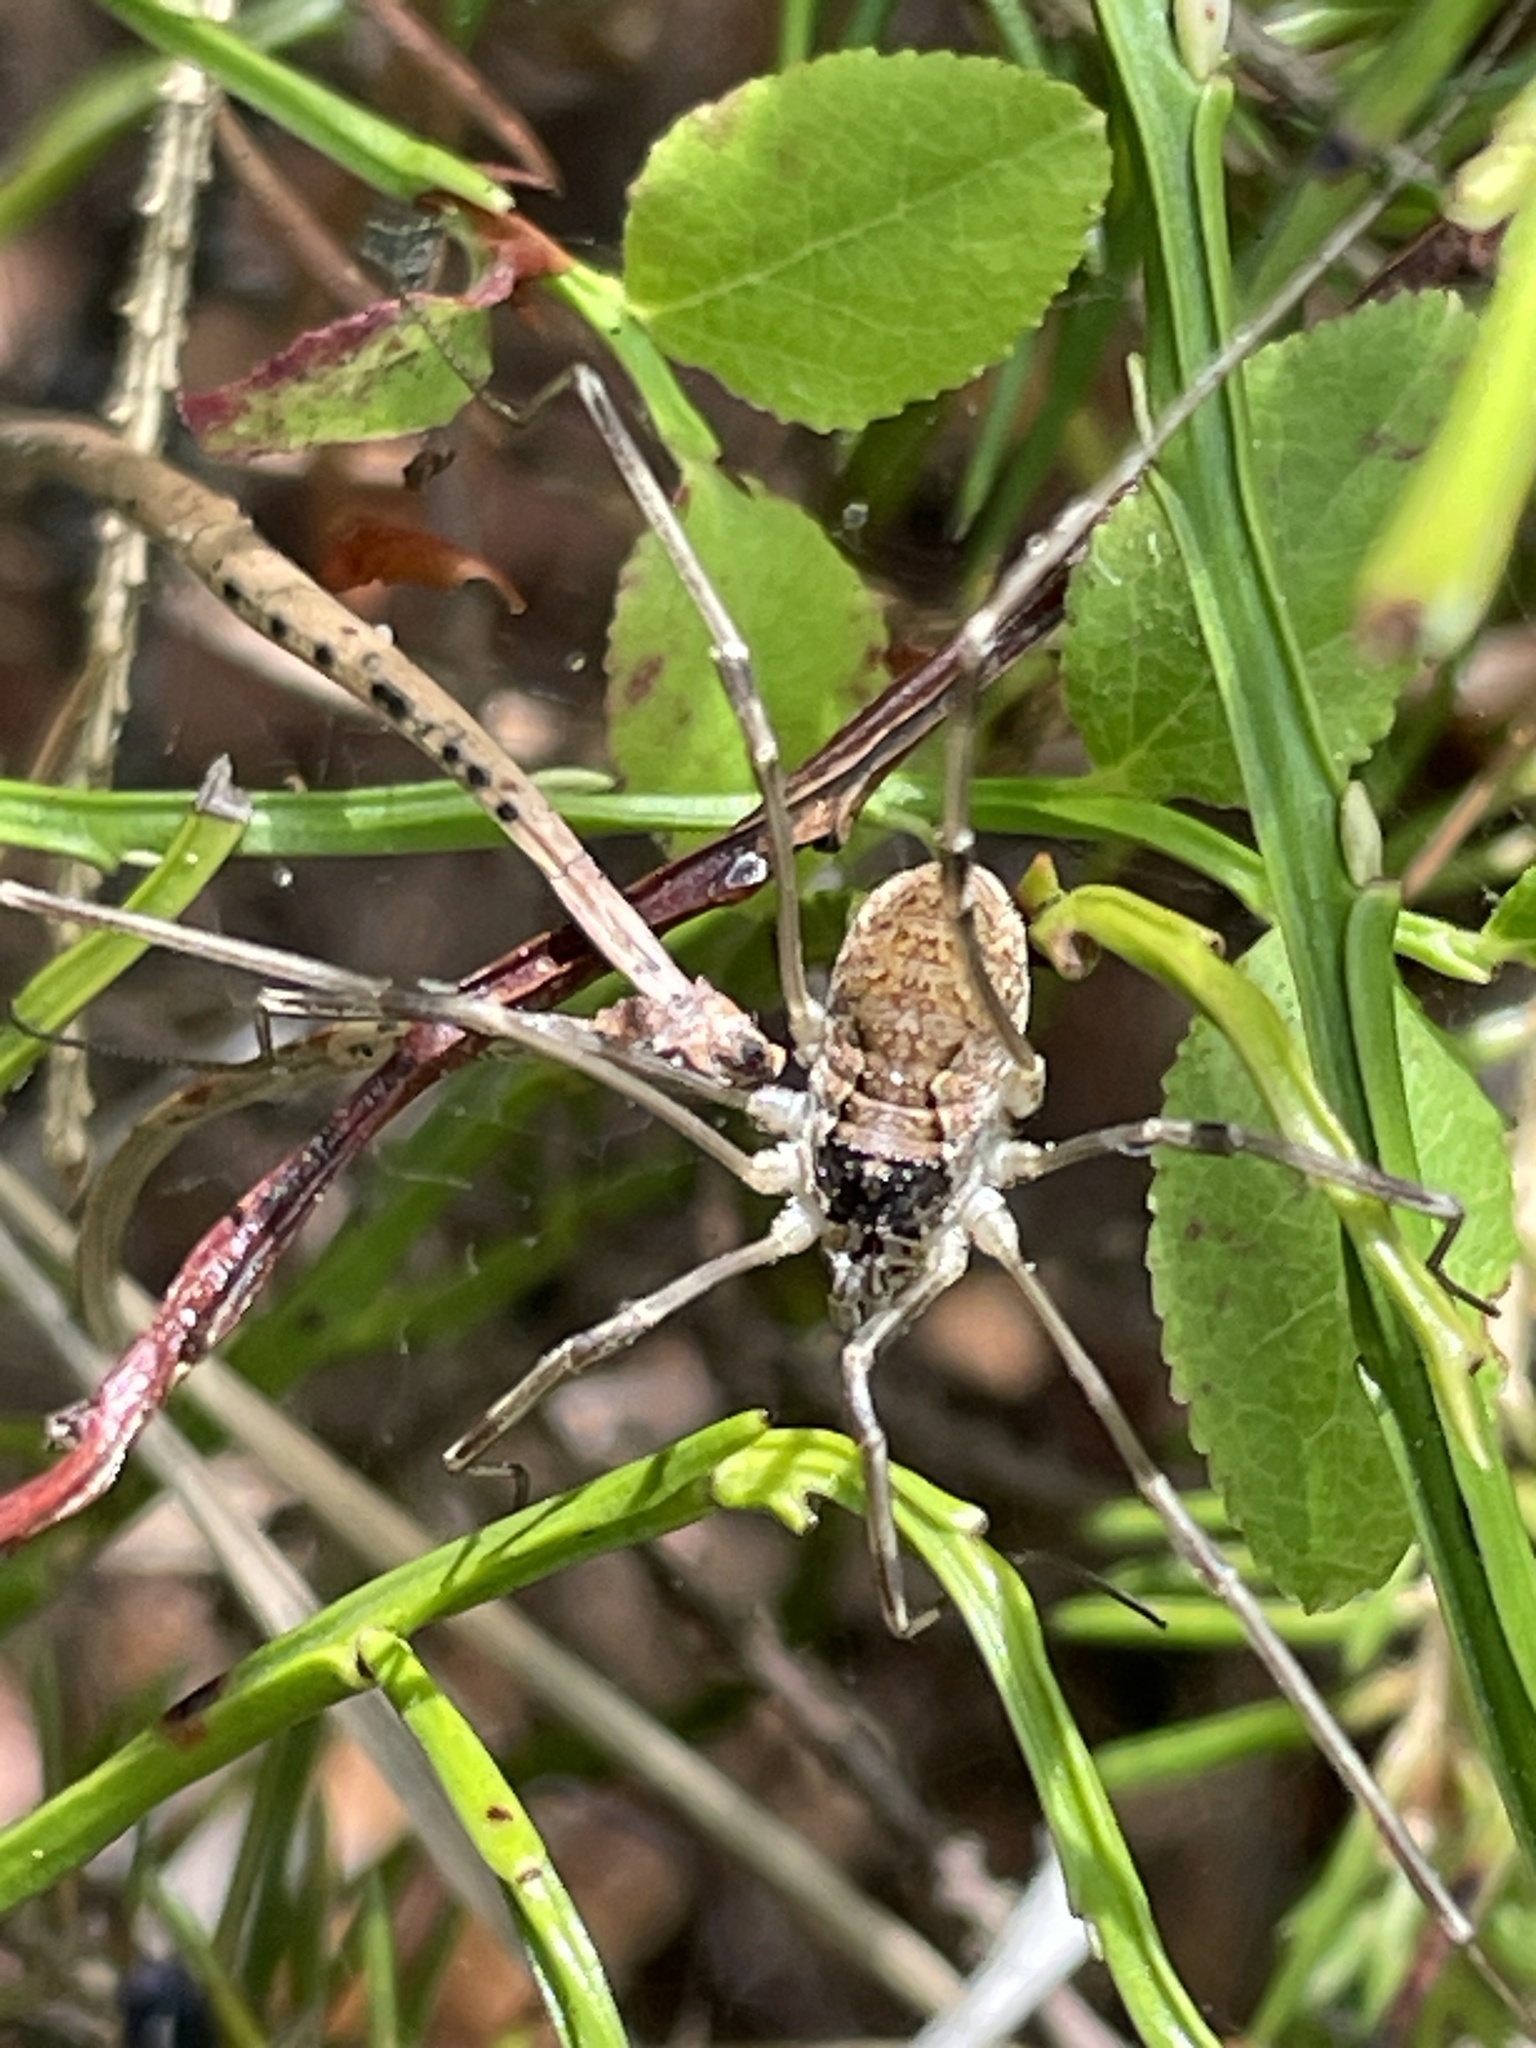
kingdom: Animalia
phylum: Arthropoda
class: Arachnida
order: Opiliones
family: Phalangiidae
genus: Mitopus
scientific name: Mitopus morio
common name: Saddleback harvestman
